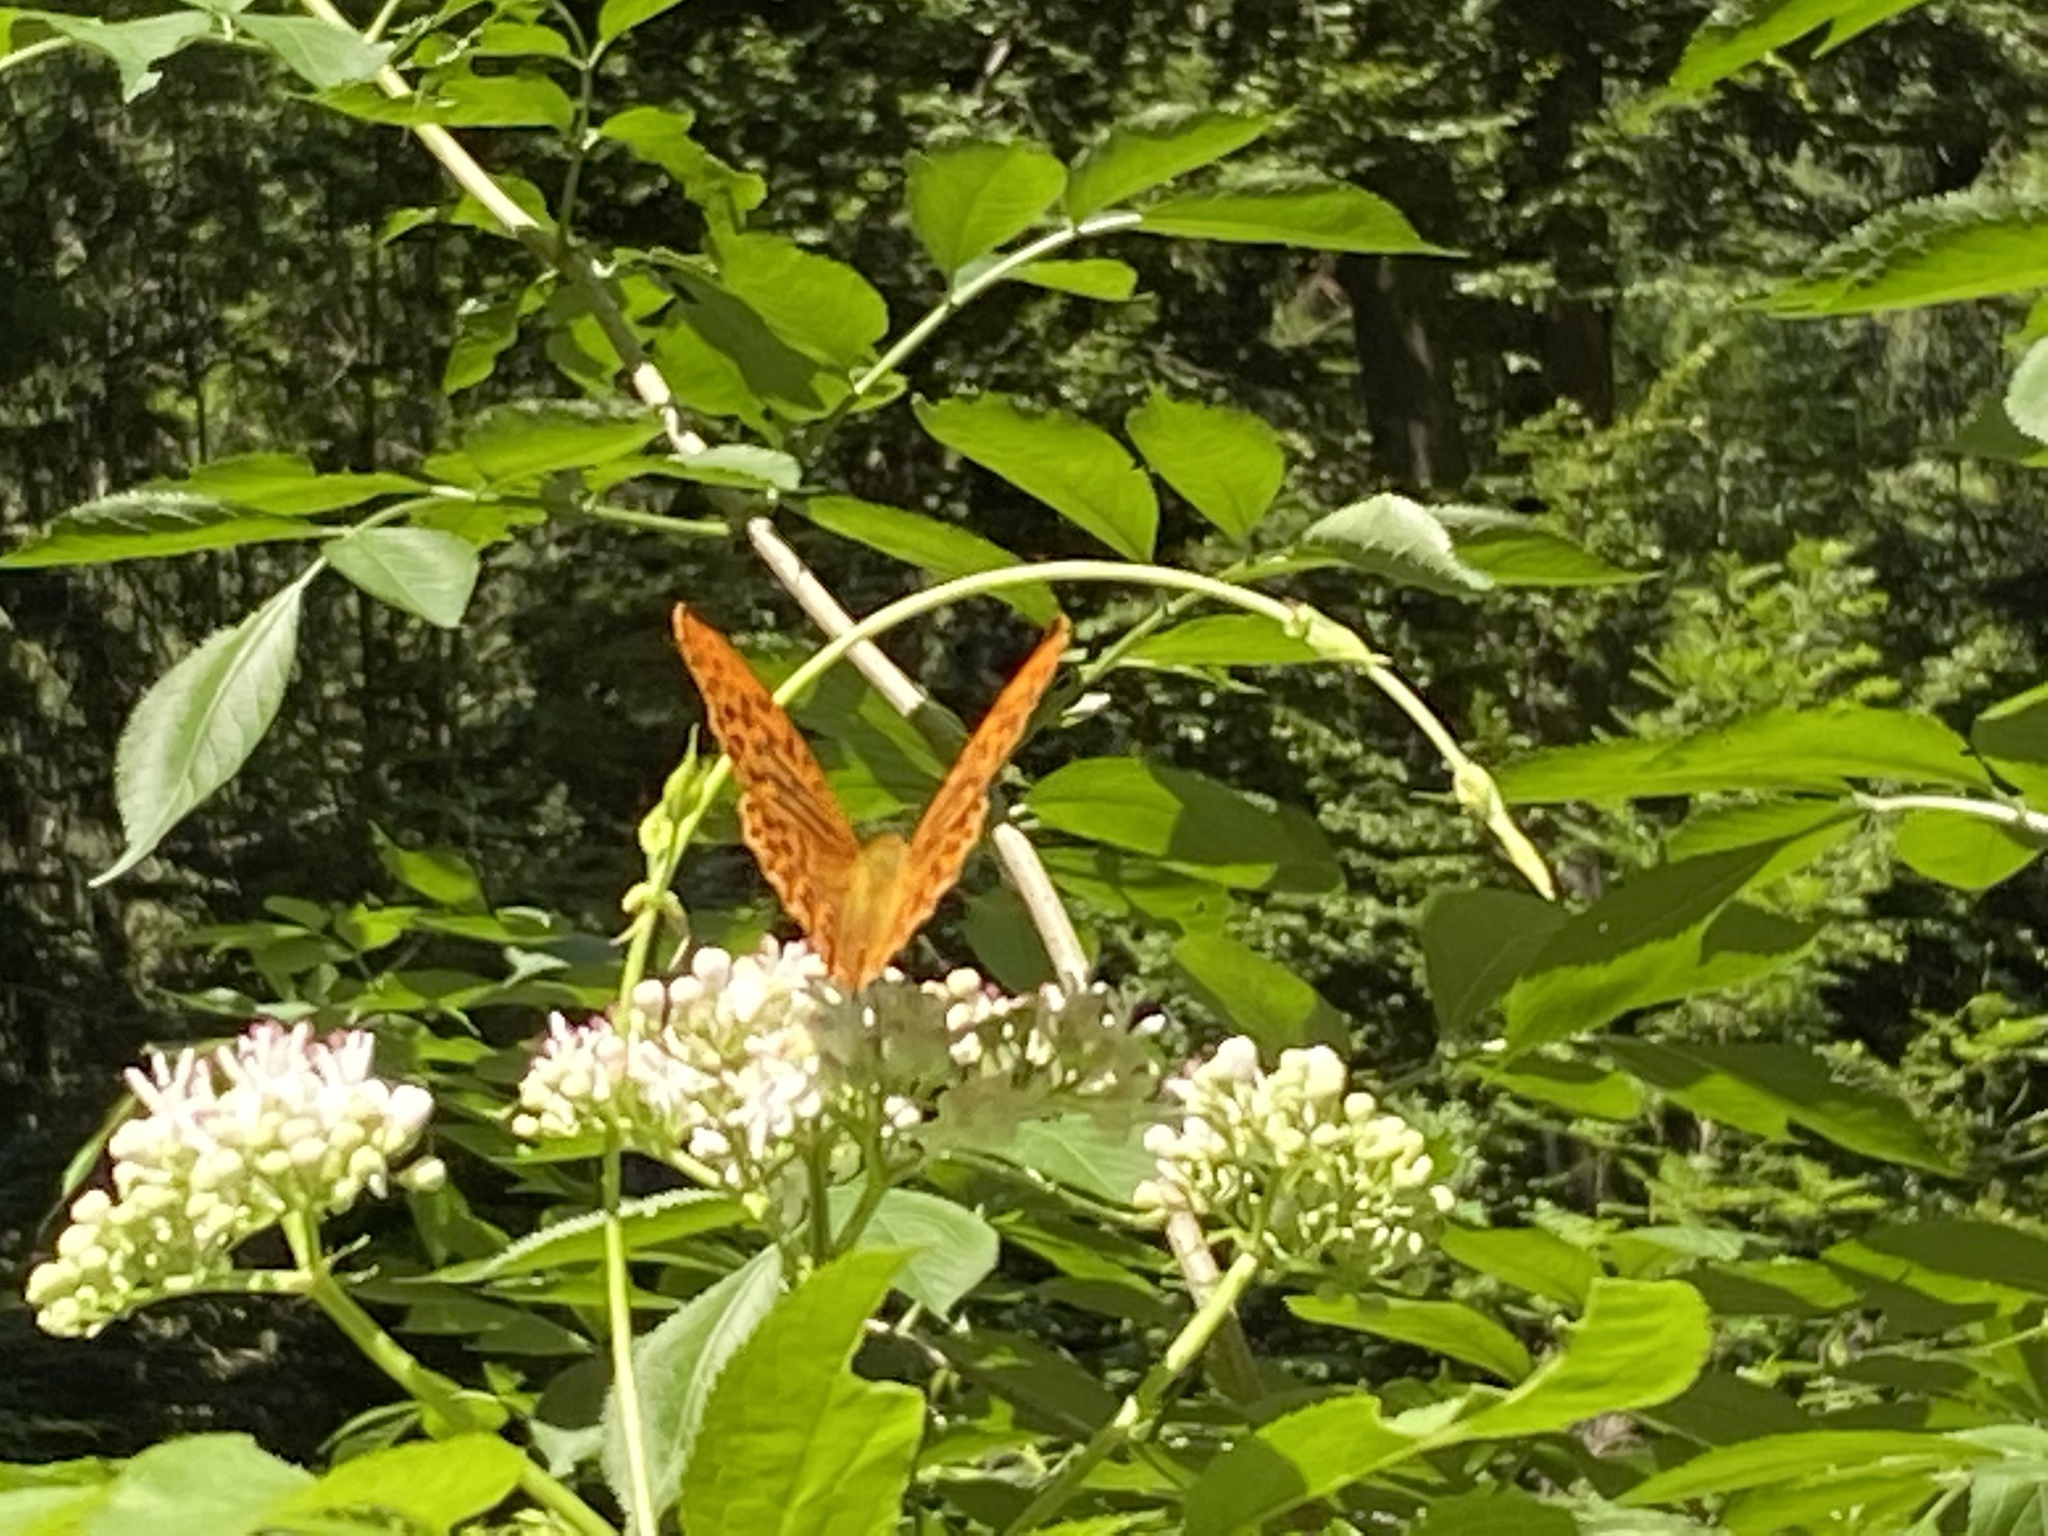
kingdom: Animalia
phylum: Arthropoda
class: Insecta
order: Lepidoptera
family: Nymphalidae
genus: Argynnis
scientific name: Argynnis paphia
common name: Silver-washed fritillary
